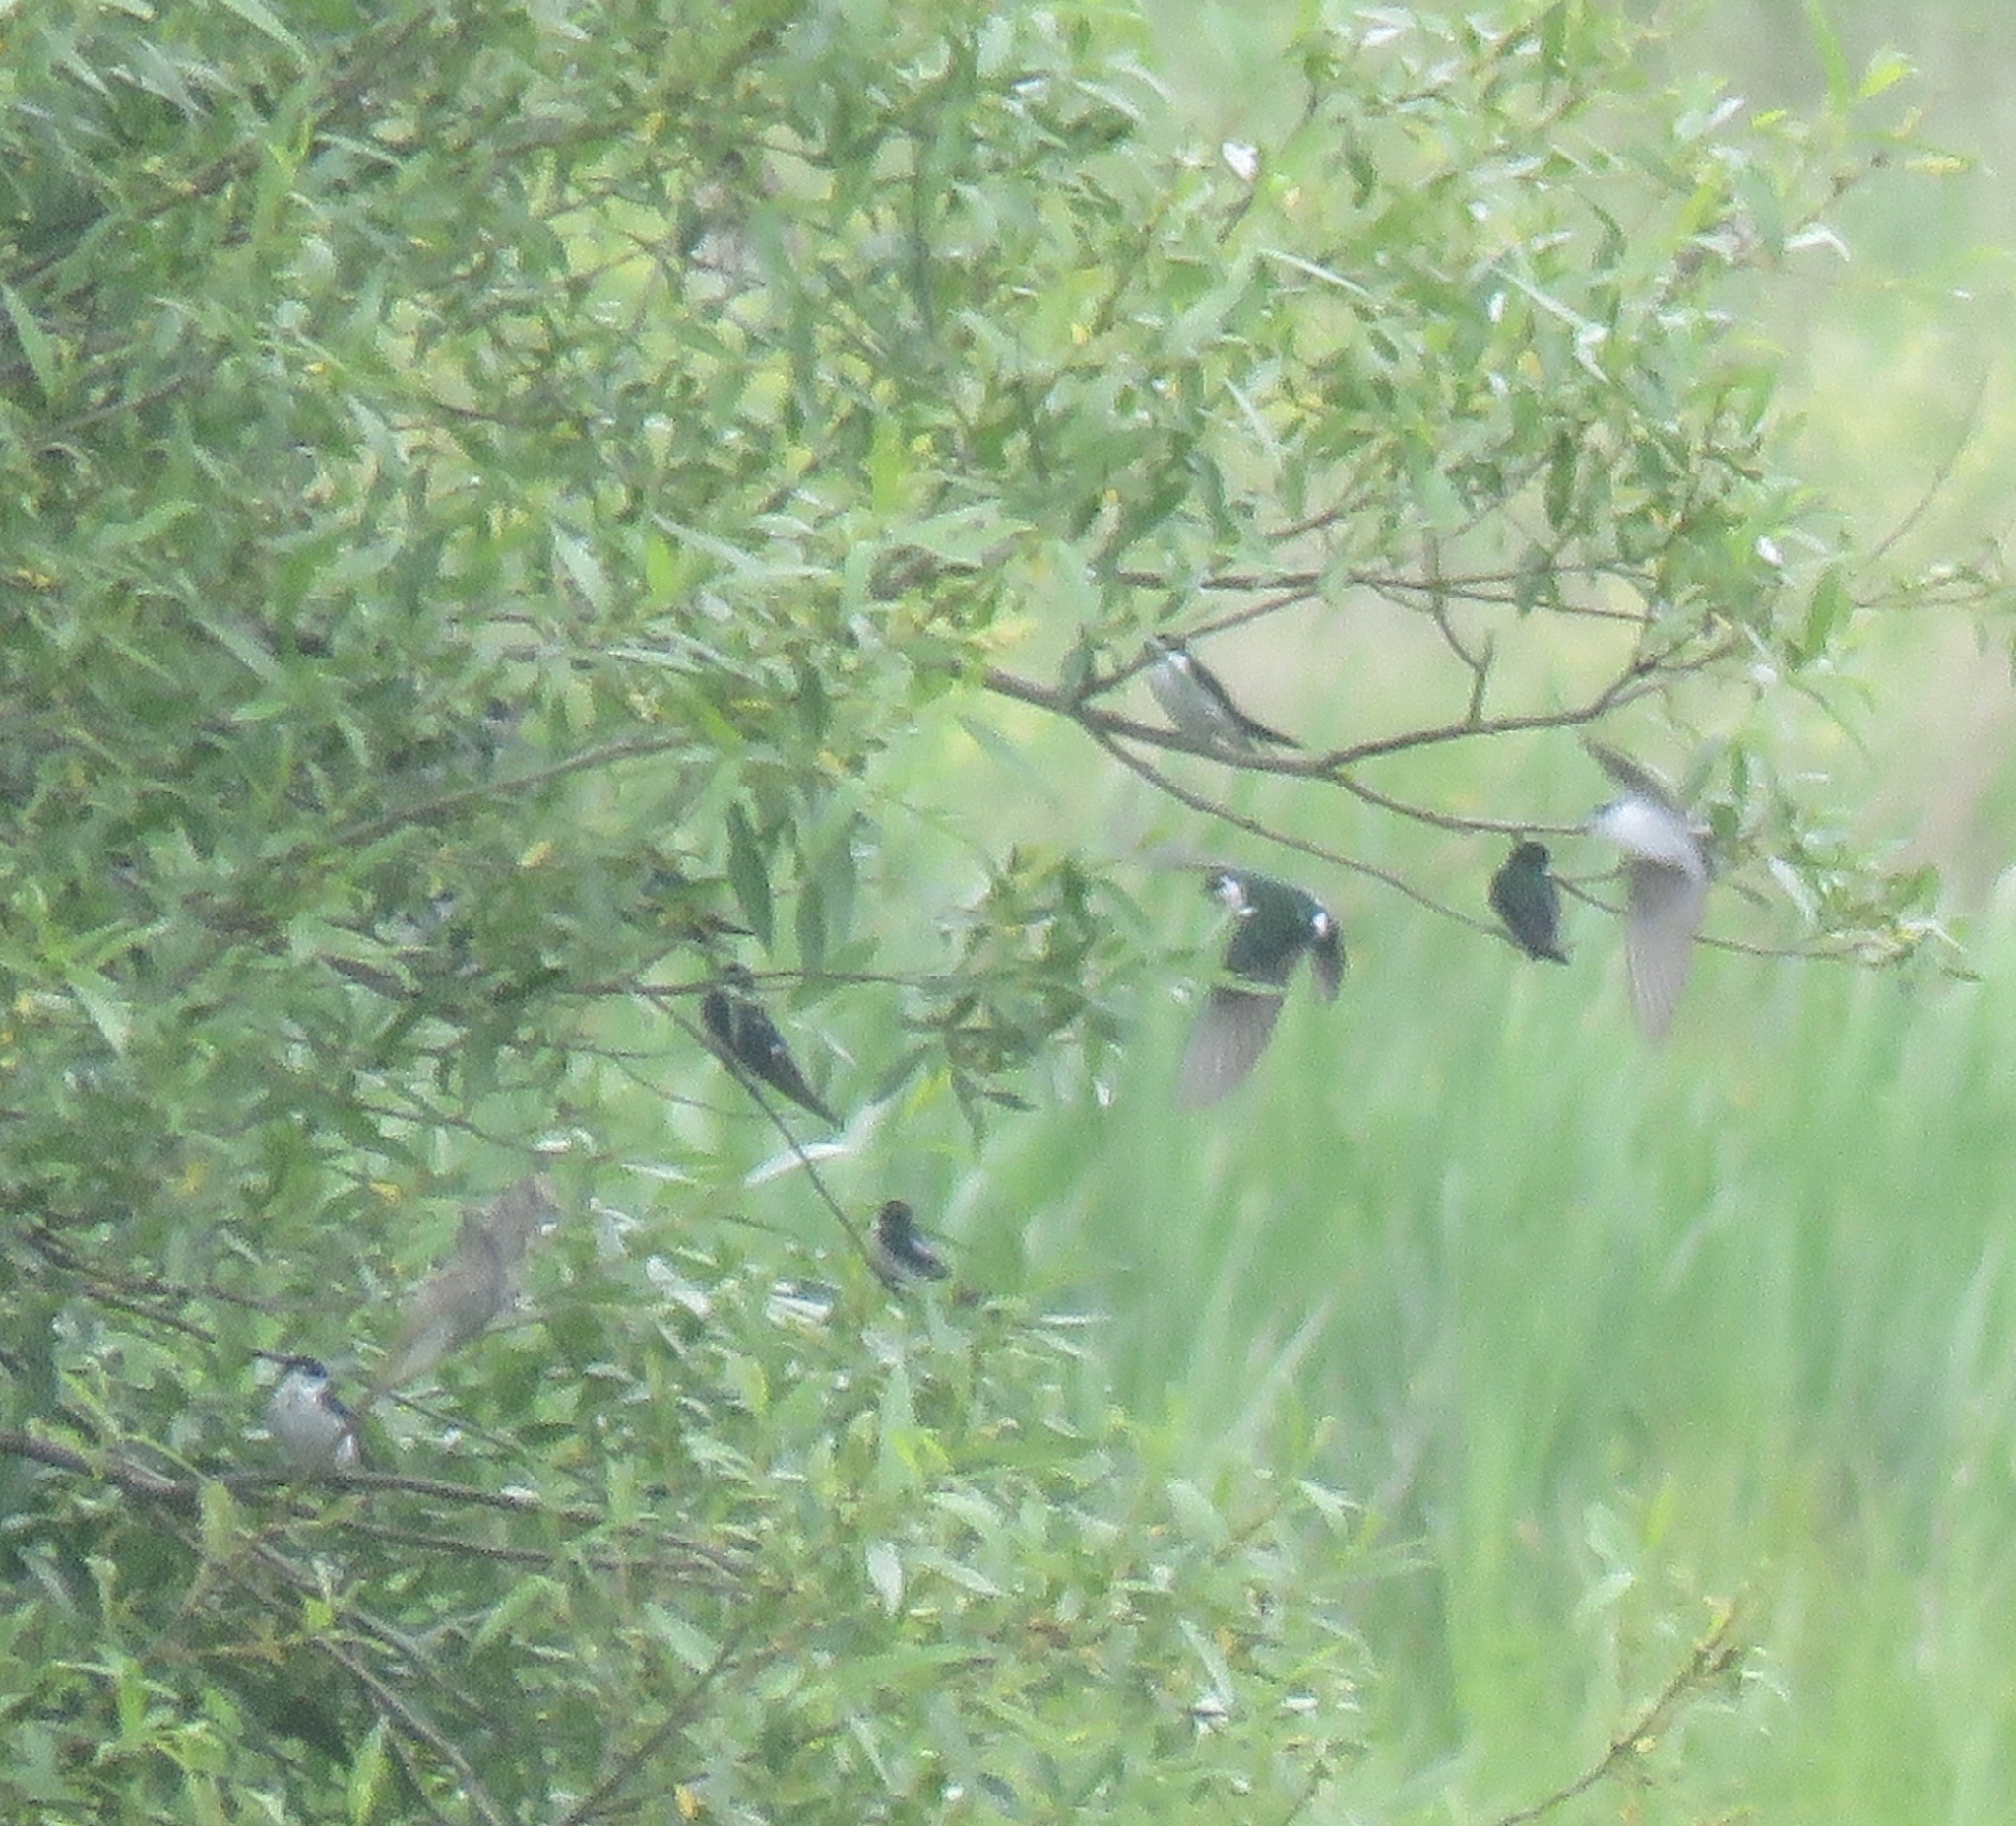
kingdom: Animalia
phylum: Chordata
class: Aves
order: Passeriformes
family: Hirundinidae
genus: Tachycineta
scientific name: Tachycineta thalassina
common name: Violet-green swallow
